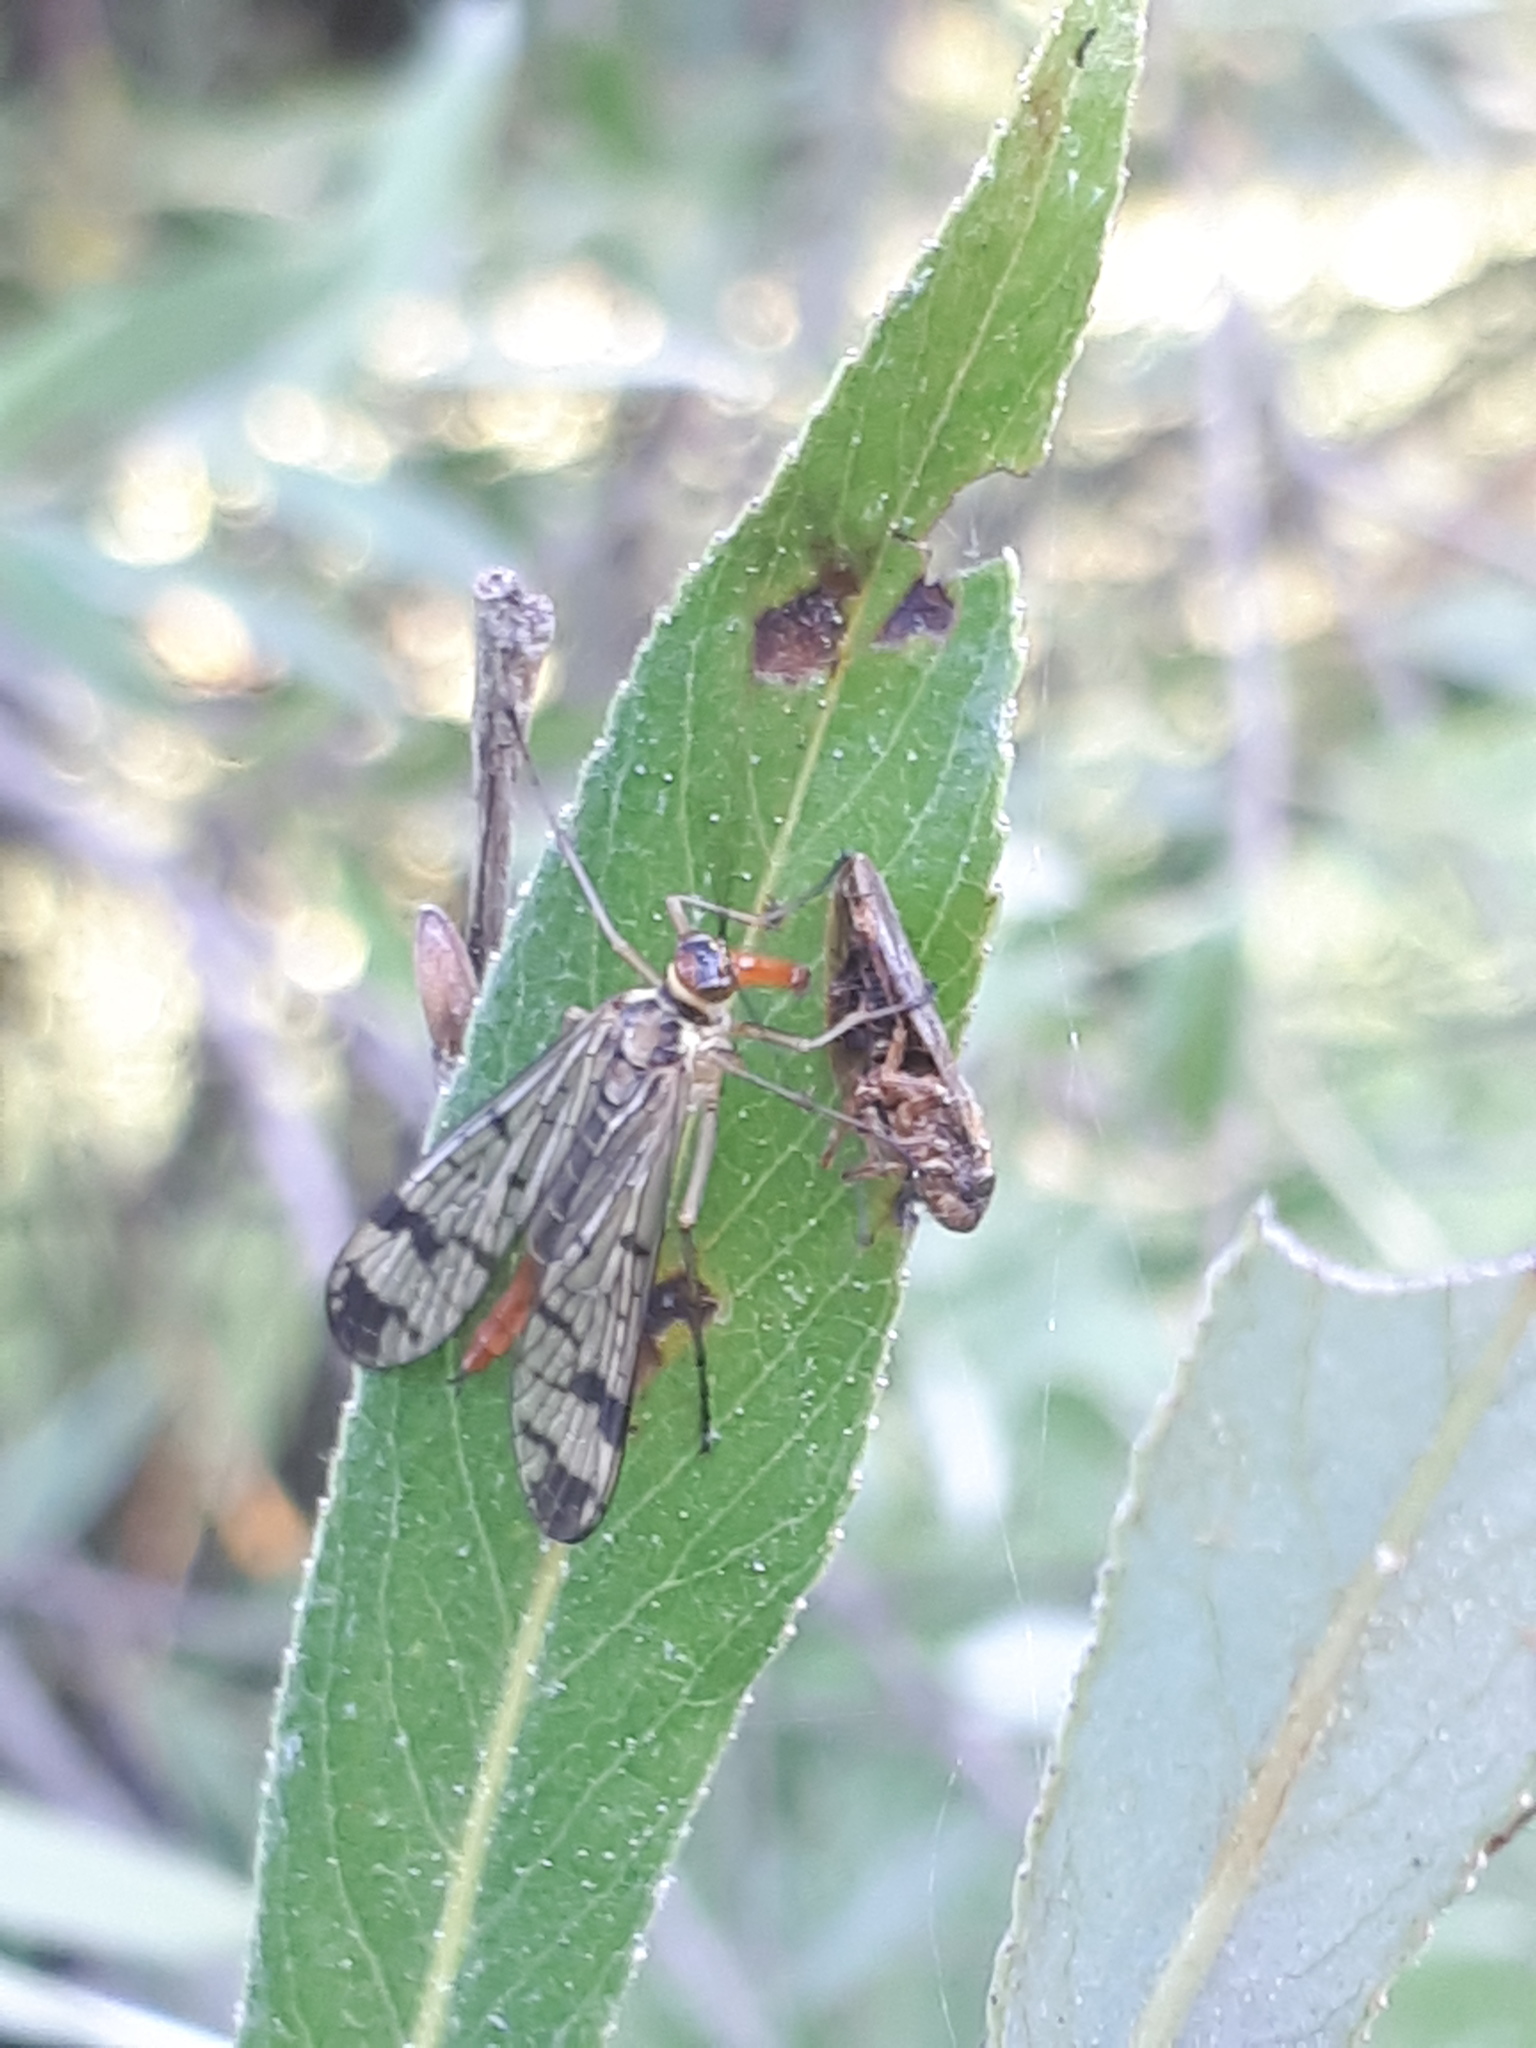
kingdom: Animalia
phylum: Arthropoda
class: Insecta
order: Mecoptera
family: Panorpidae
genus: Panorpa
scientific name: Panorpa cognata
